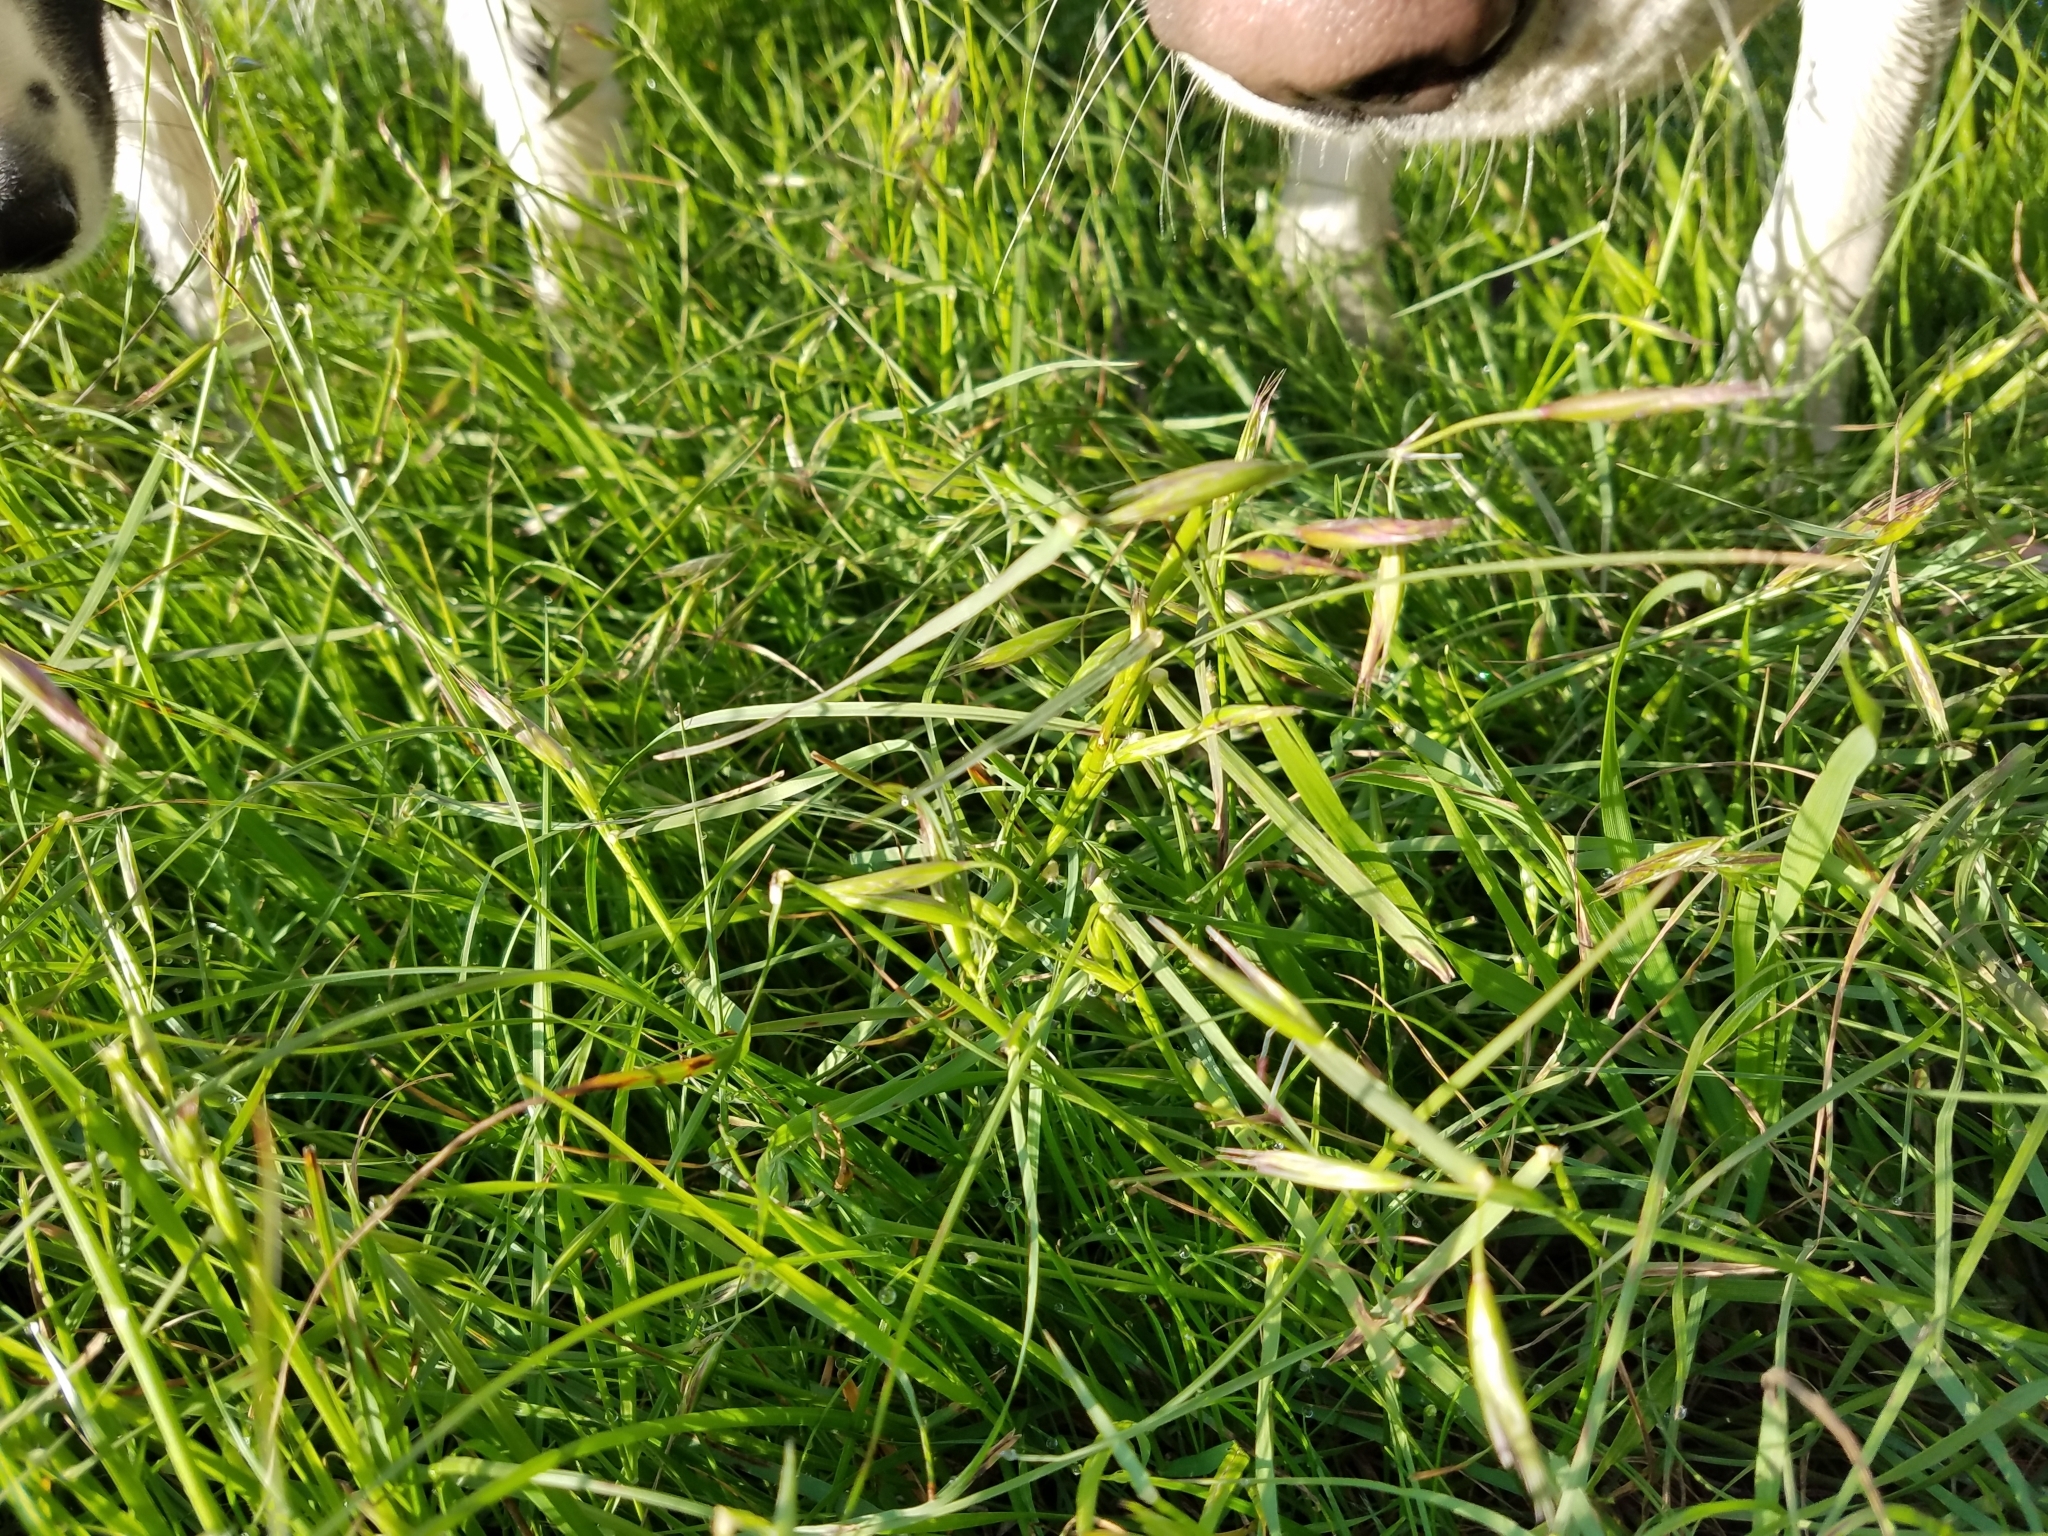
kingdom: Plantae
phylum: Tracheophyta
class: Liliopsida
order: Poales
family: Poaceae
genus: Danthonia
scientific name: Danthonia californica
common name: California oat grass
